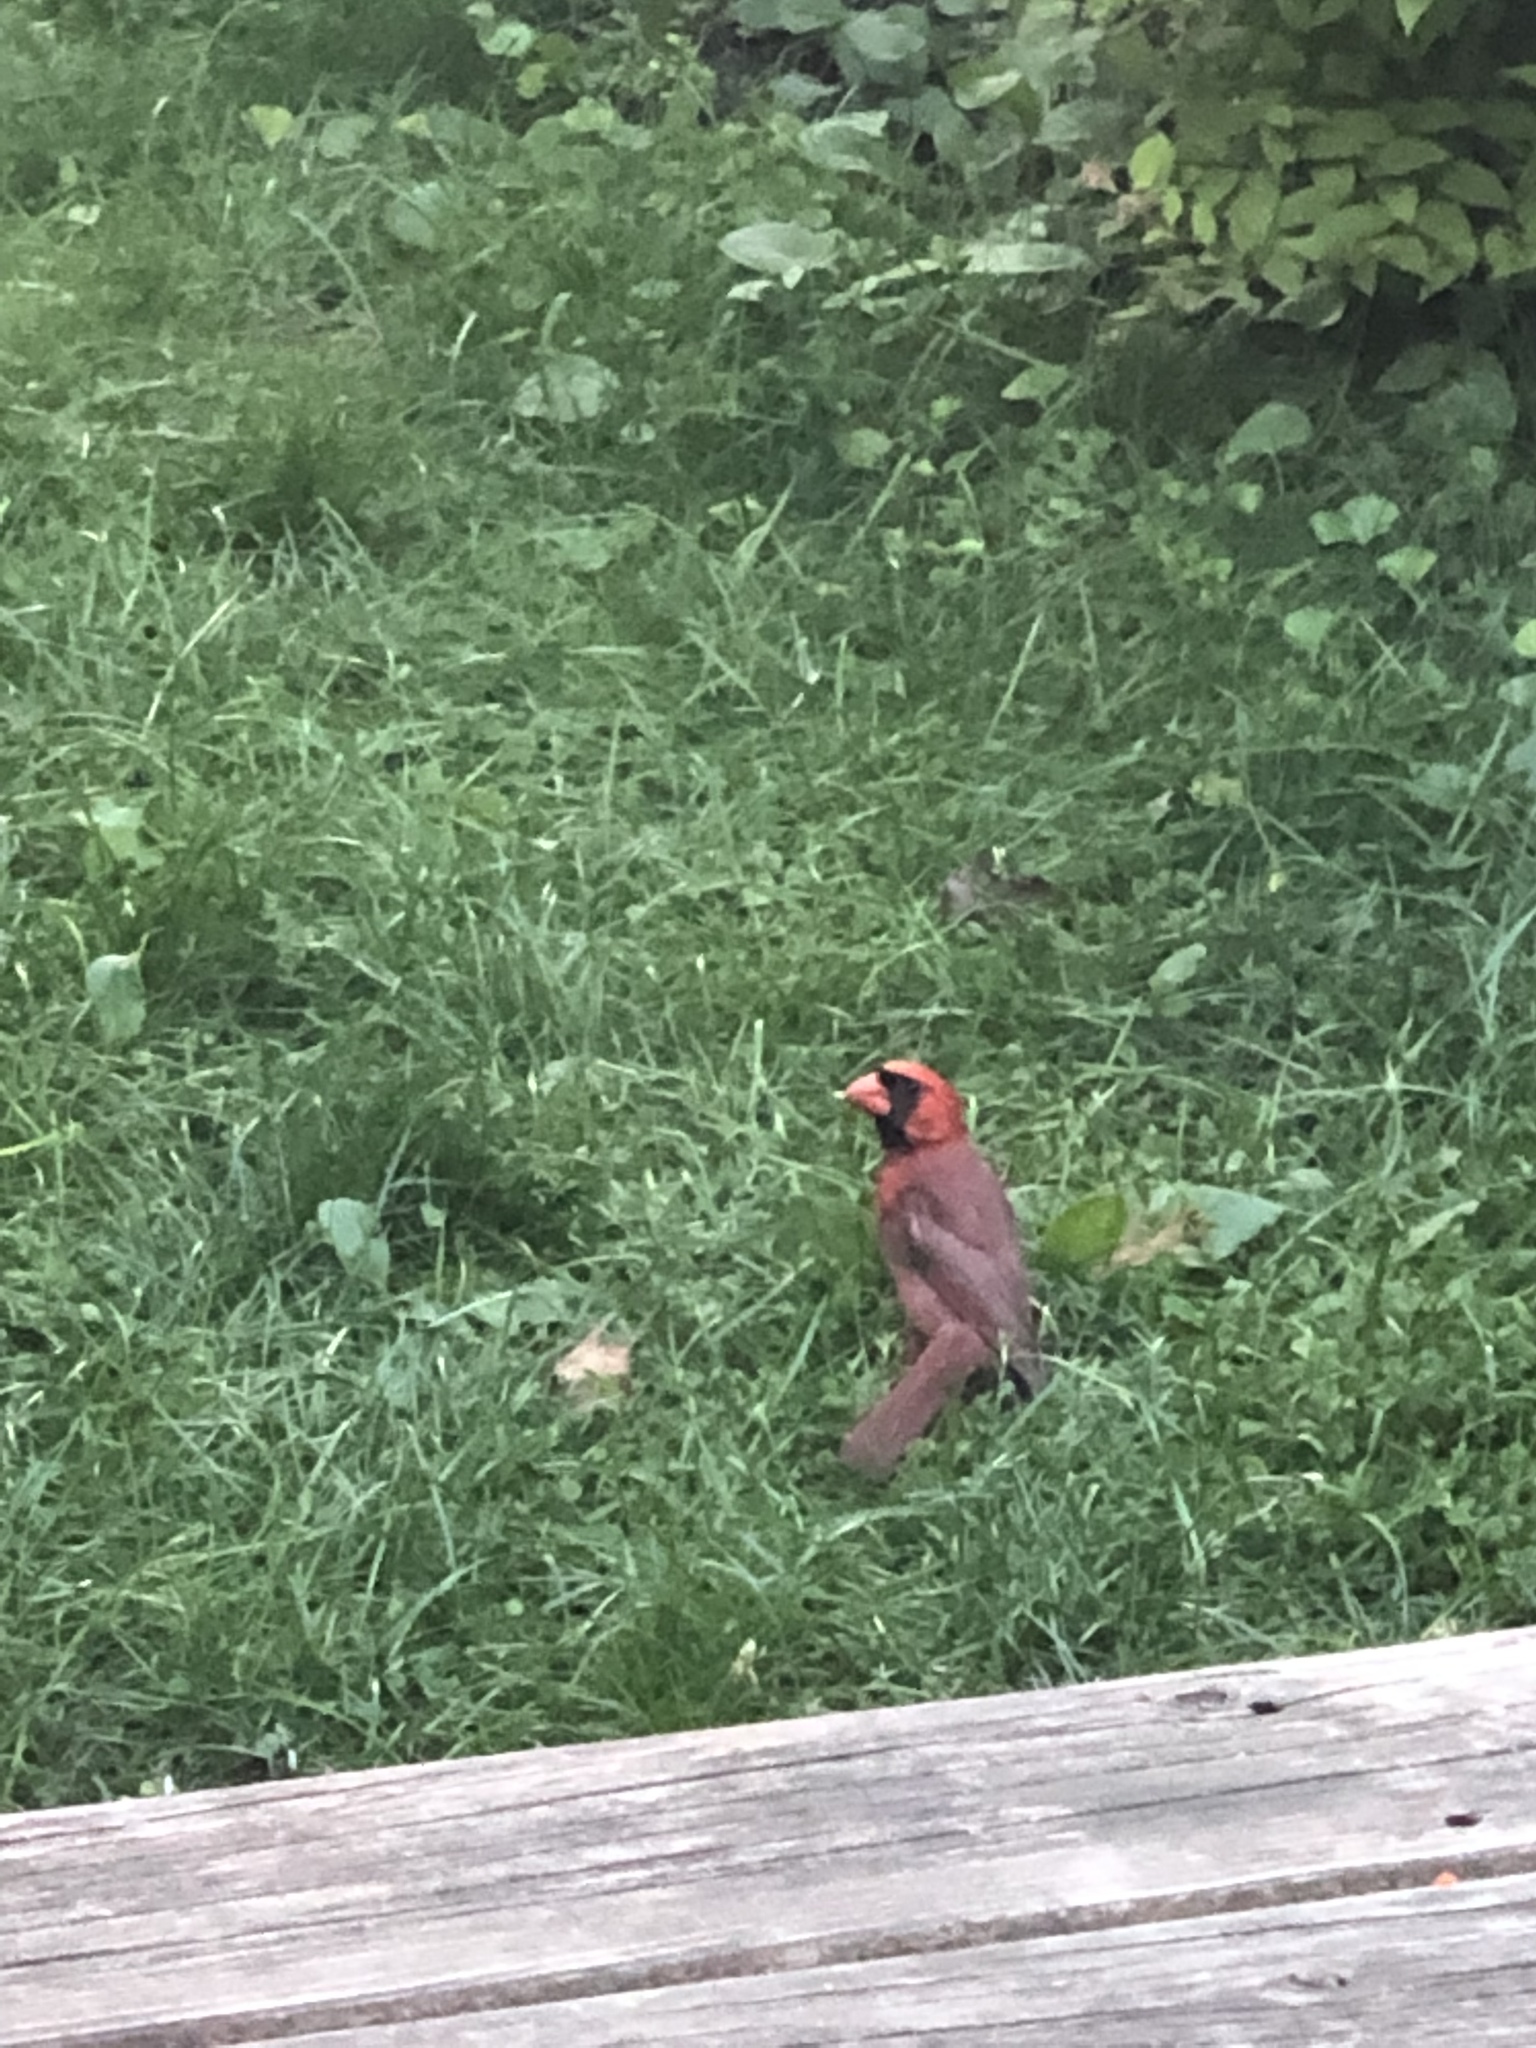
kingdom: Animalia
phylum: Chordata
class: Aves
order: Passeriformes
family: Cardinalidae
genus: Cardinalis
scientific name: Cardinalis cardinalis
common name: Northern cardinal
